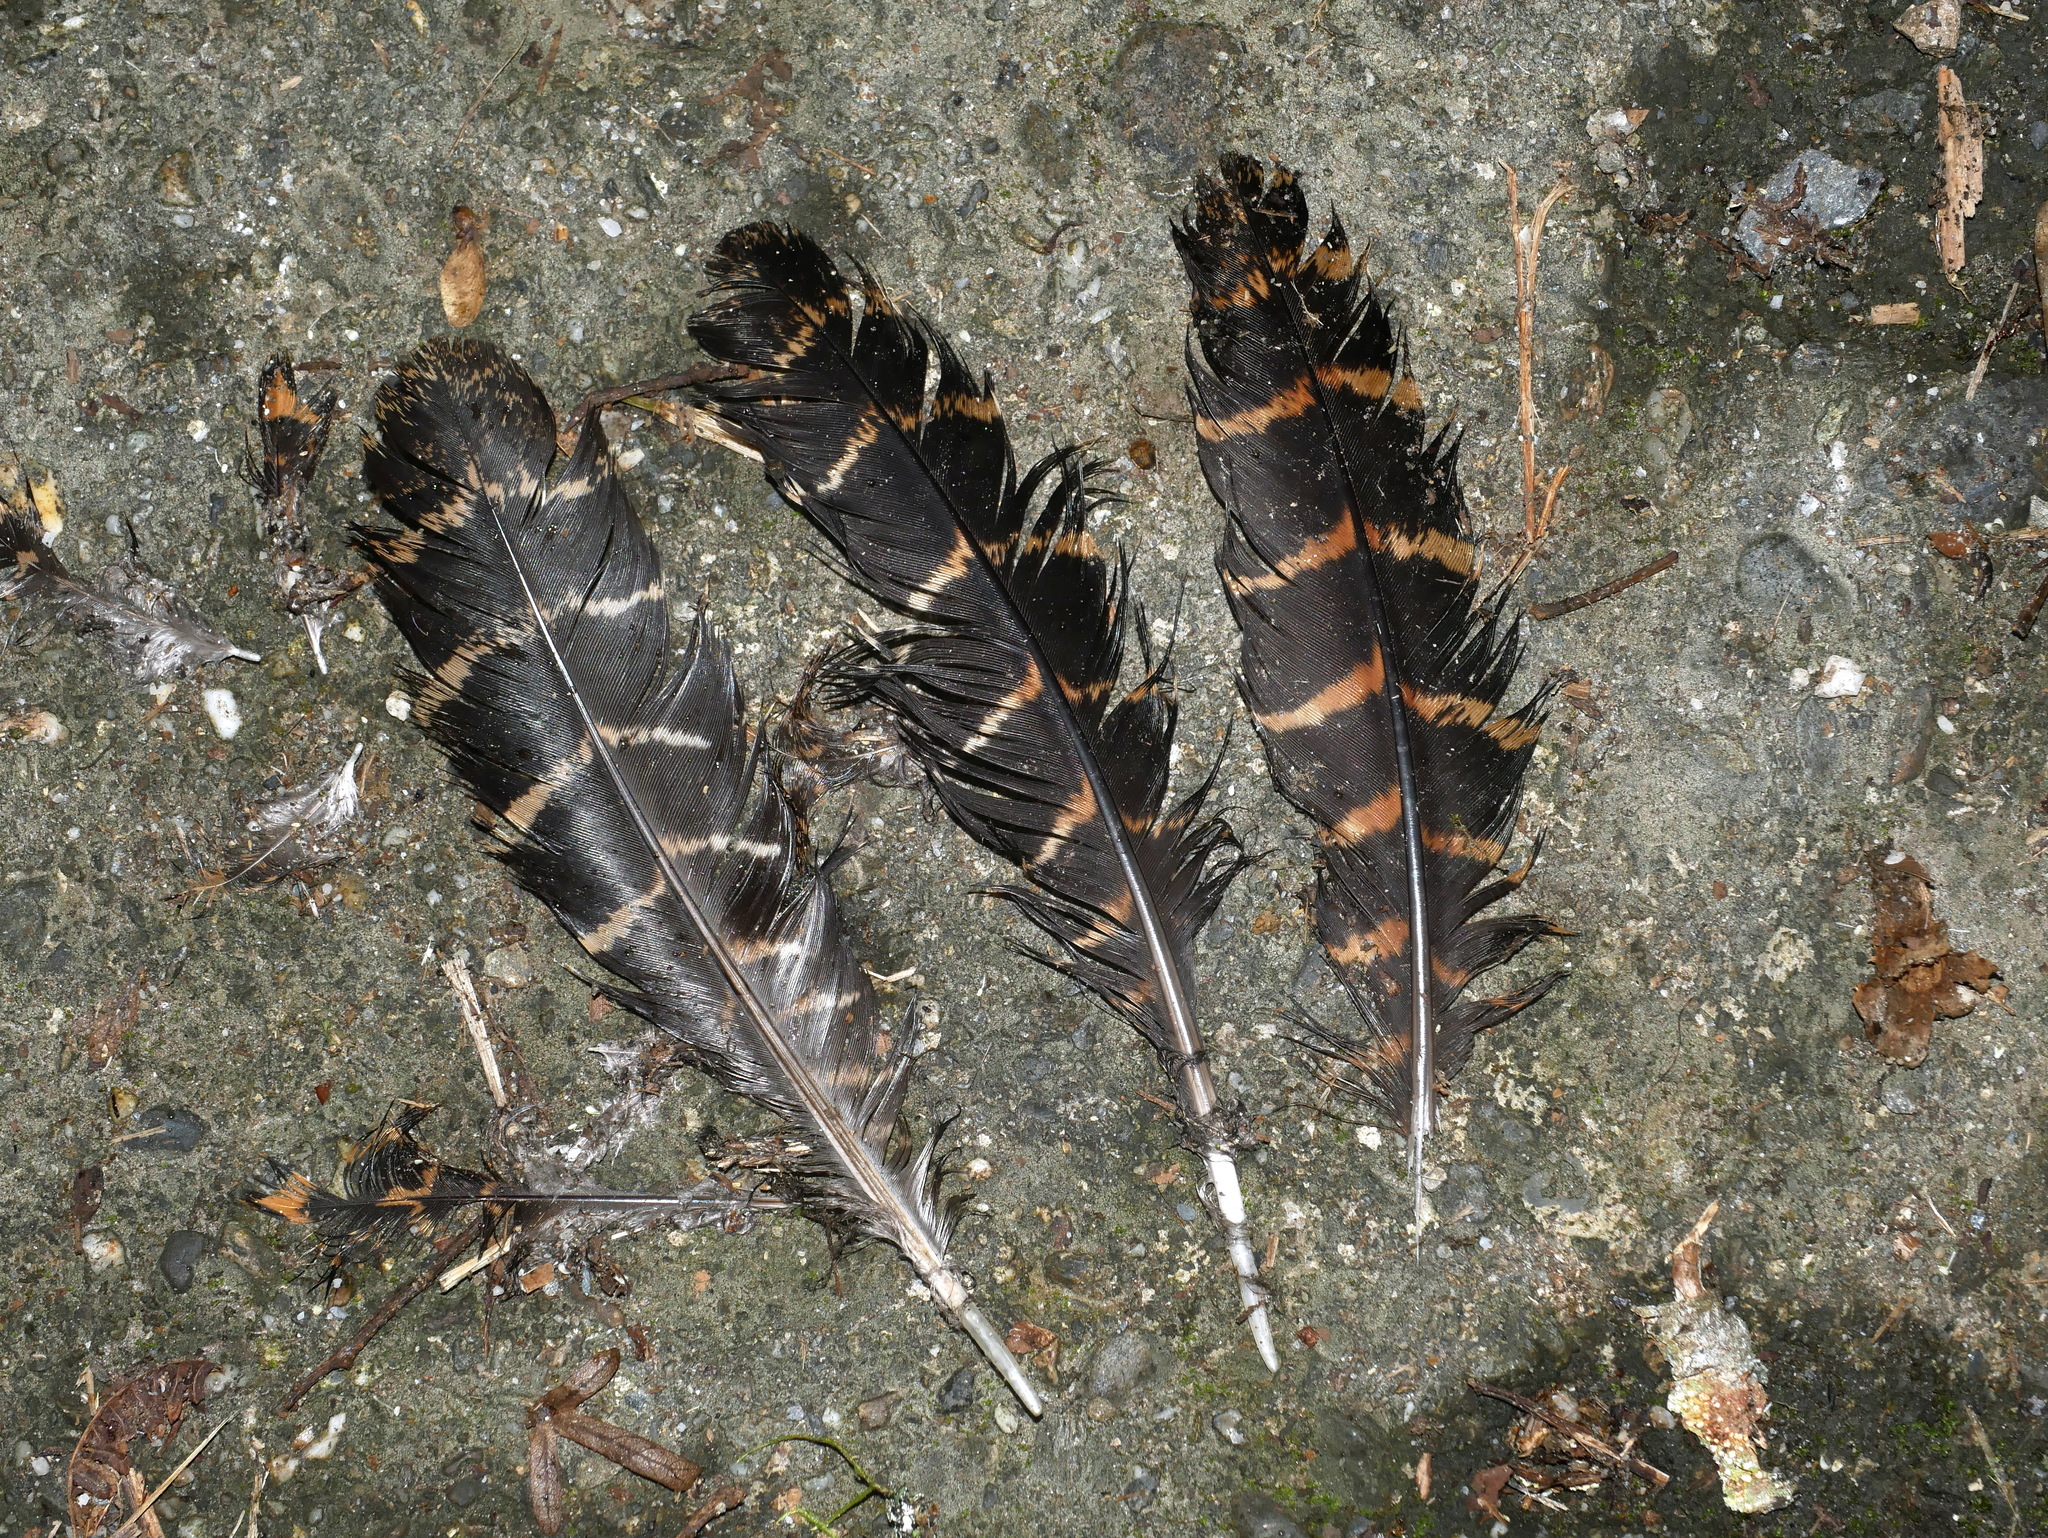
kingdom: Animalia
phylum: Chordata
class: Aves
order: Galliformes
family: Phasianidae
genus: Lophura
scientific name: Lophura swinhoii
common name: Swinhoe's pheasant
